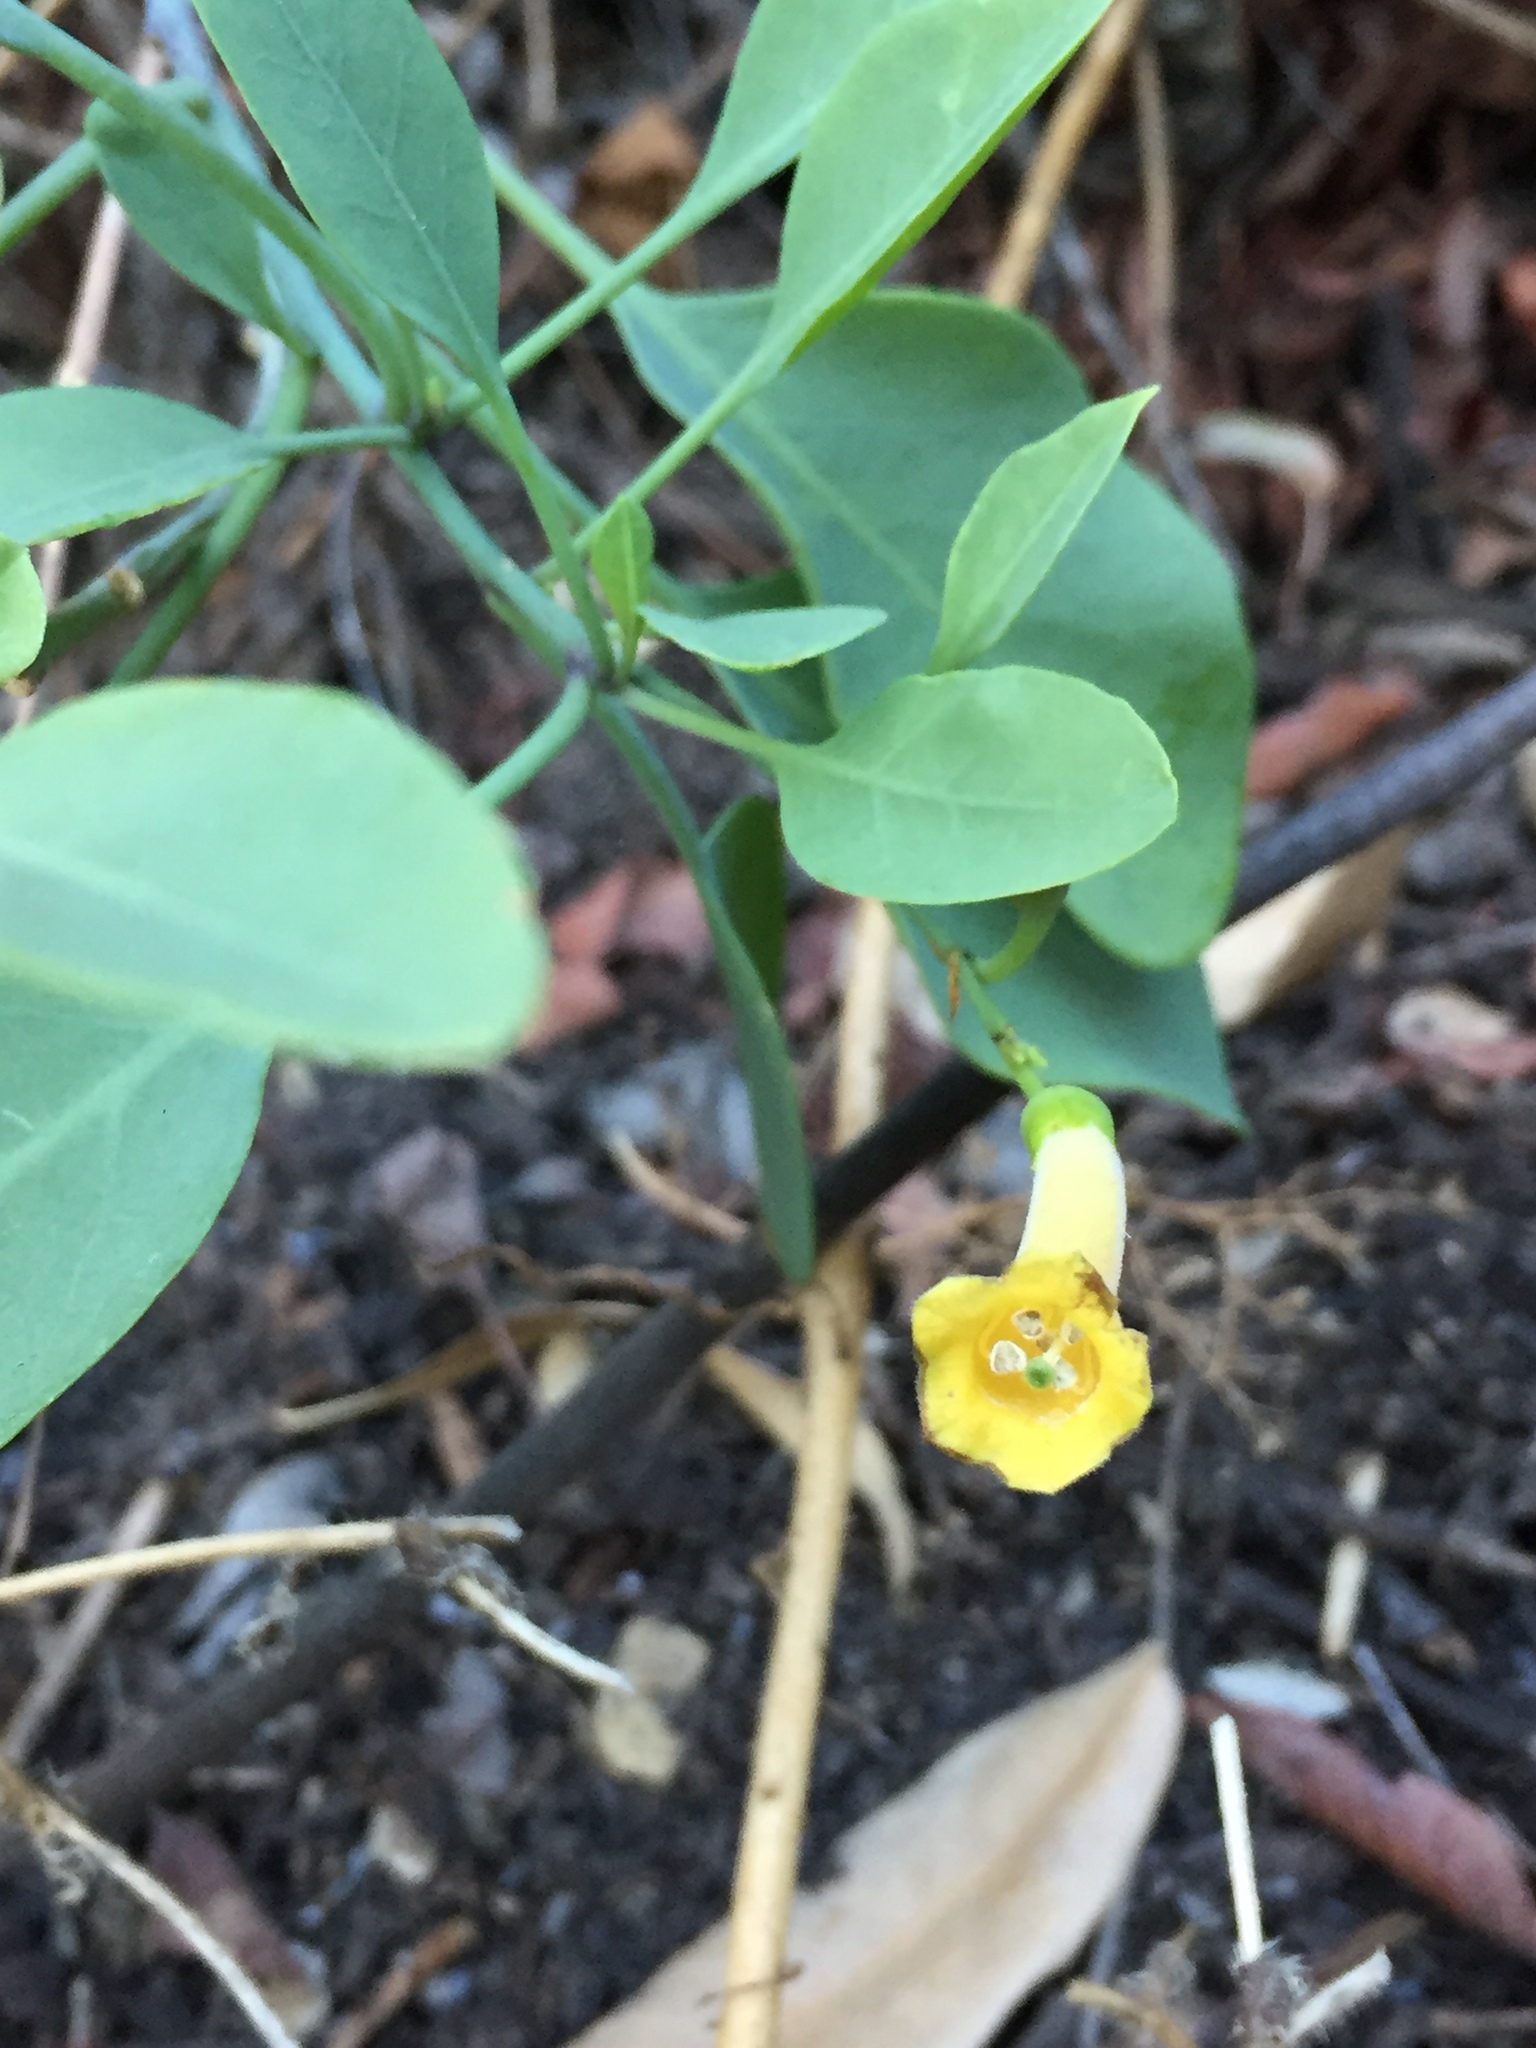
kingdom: Plantae
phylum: Tracheophyta
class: Magnoliopsida
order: Solanales
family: Solanaceae
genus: Nicotiana
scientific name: Nicotiana glauca
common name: Tree tobacco
